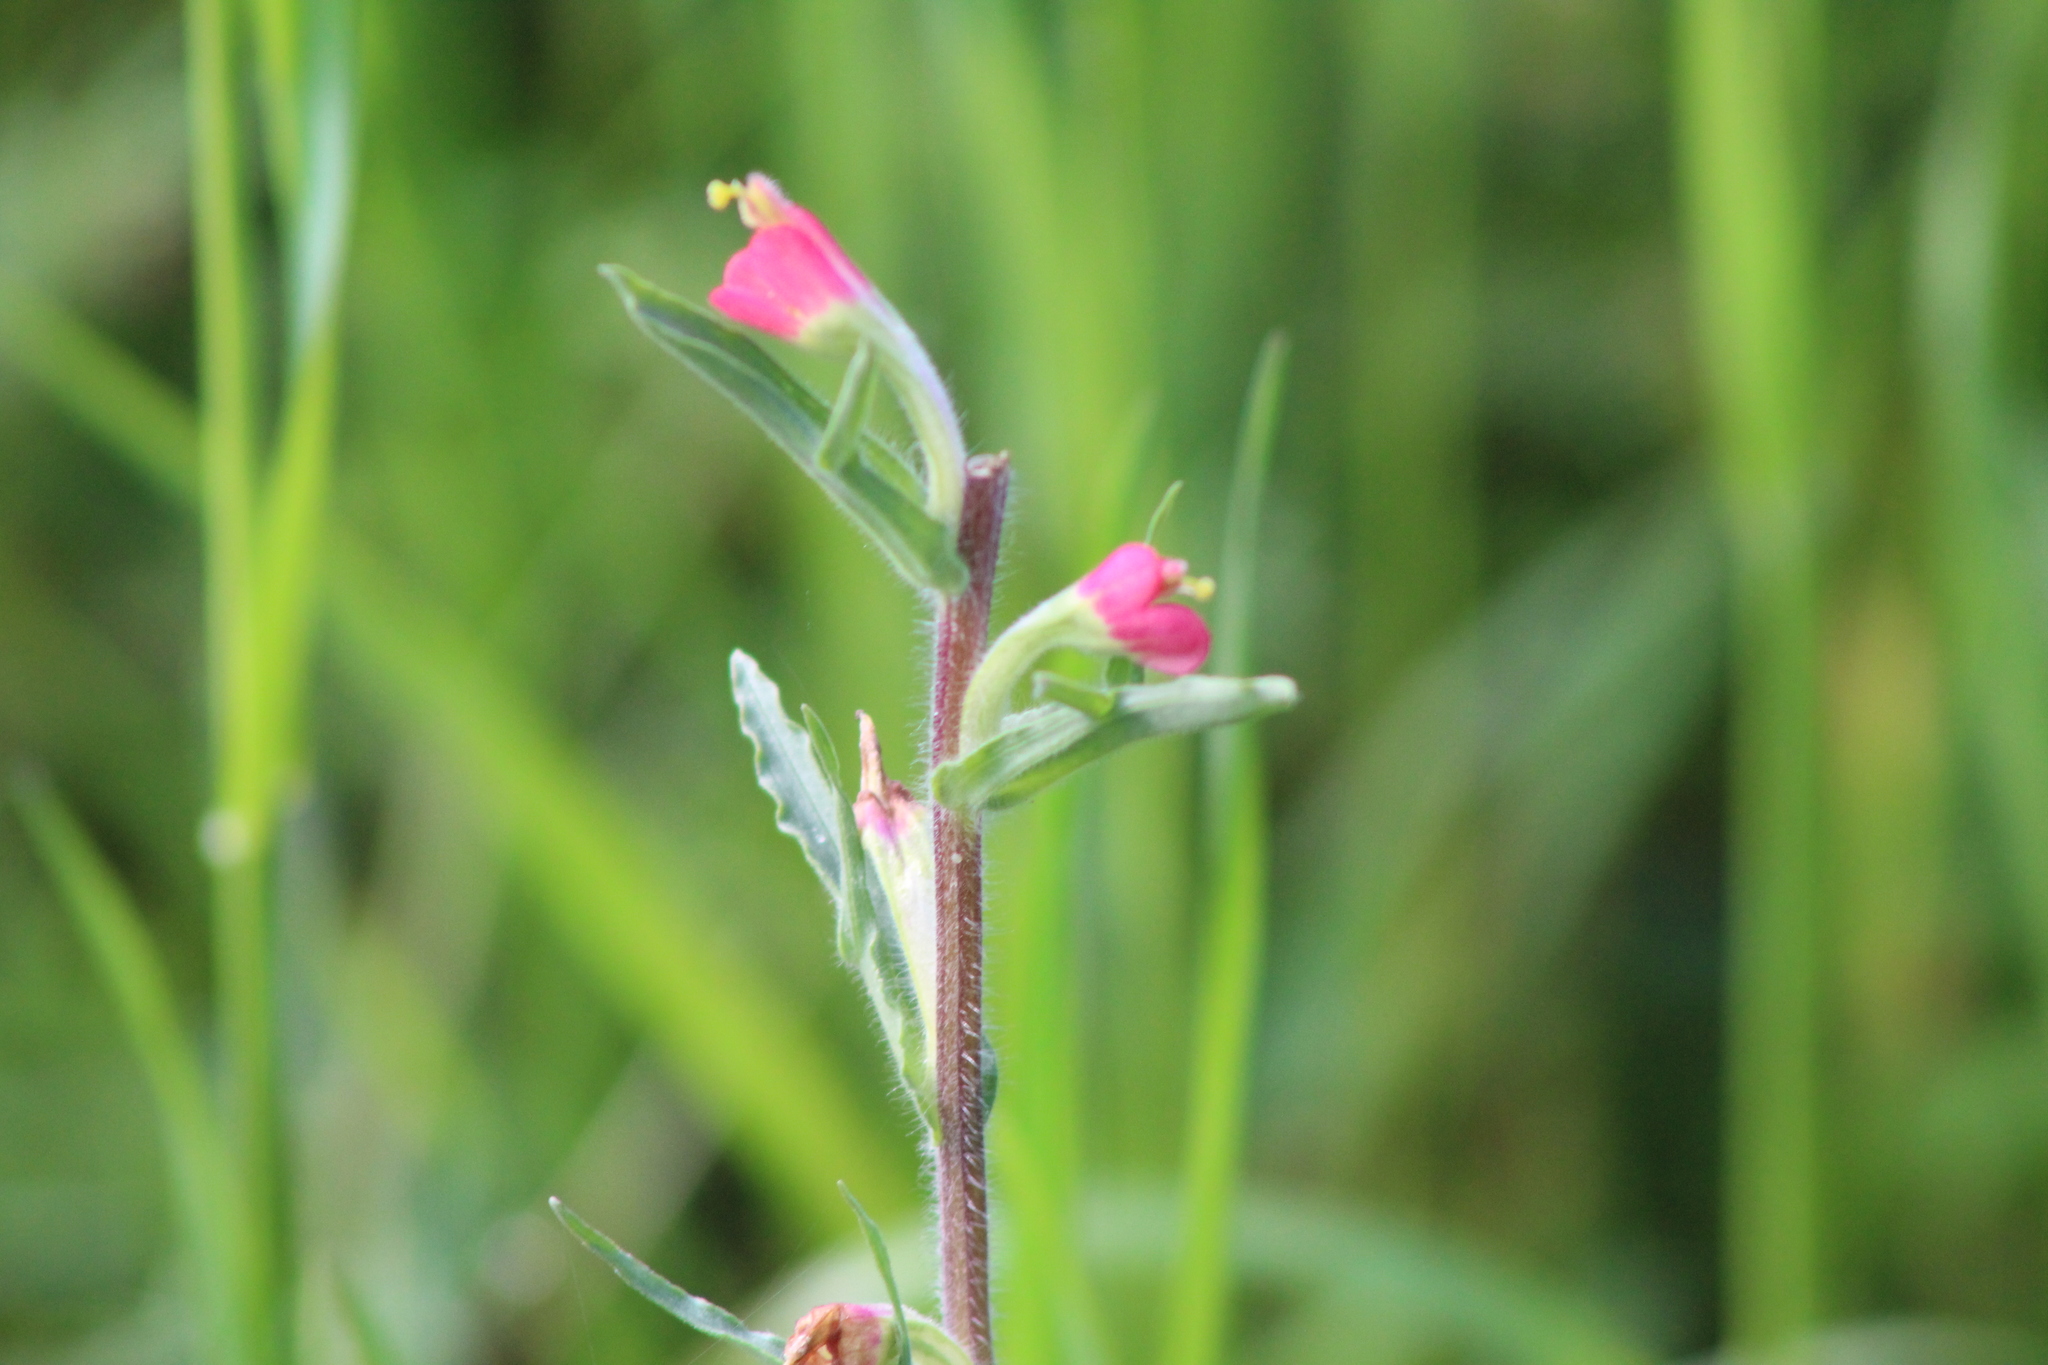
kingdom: Plantae
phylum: Tracheophyta
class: Magnoliopsida
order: Lamiales
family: Orobanchaceae
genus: Castilleja
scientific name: Castilleja indivisa
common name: Texas paintbrush
